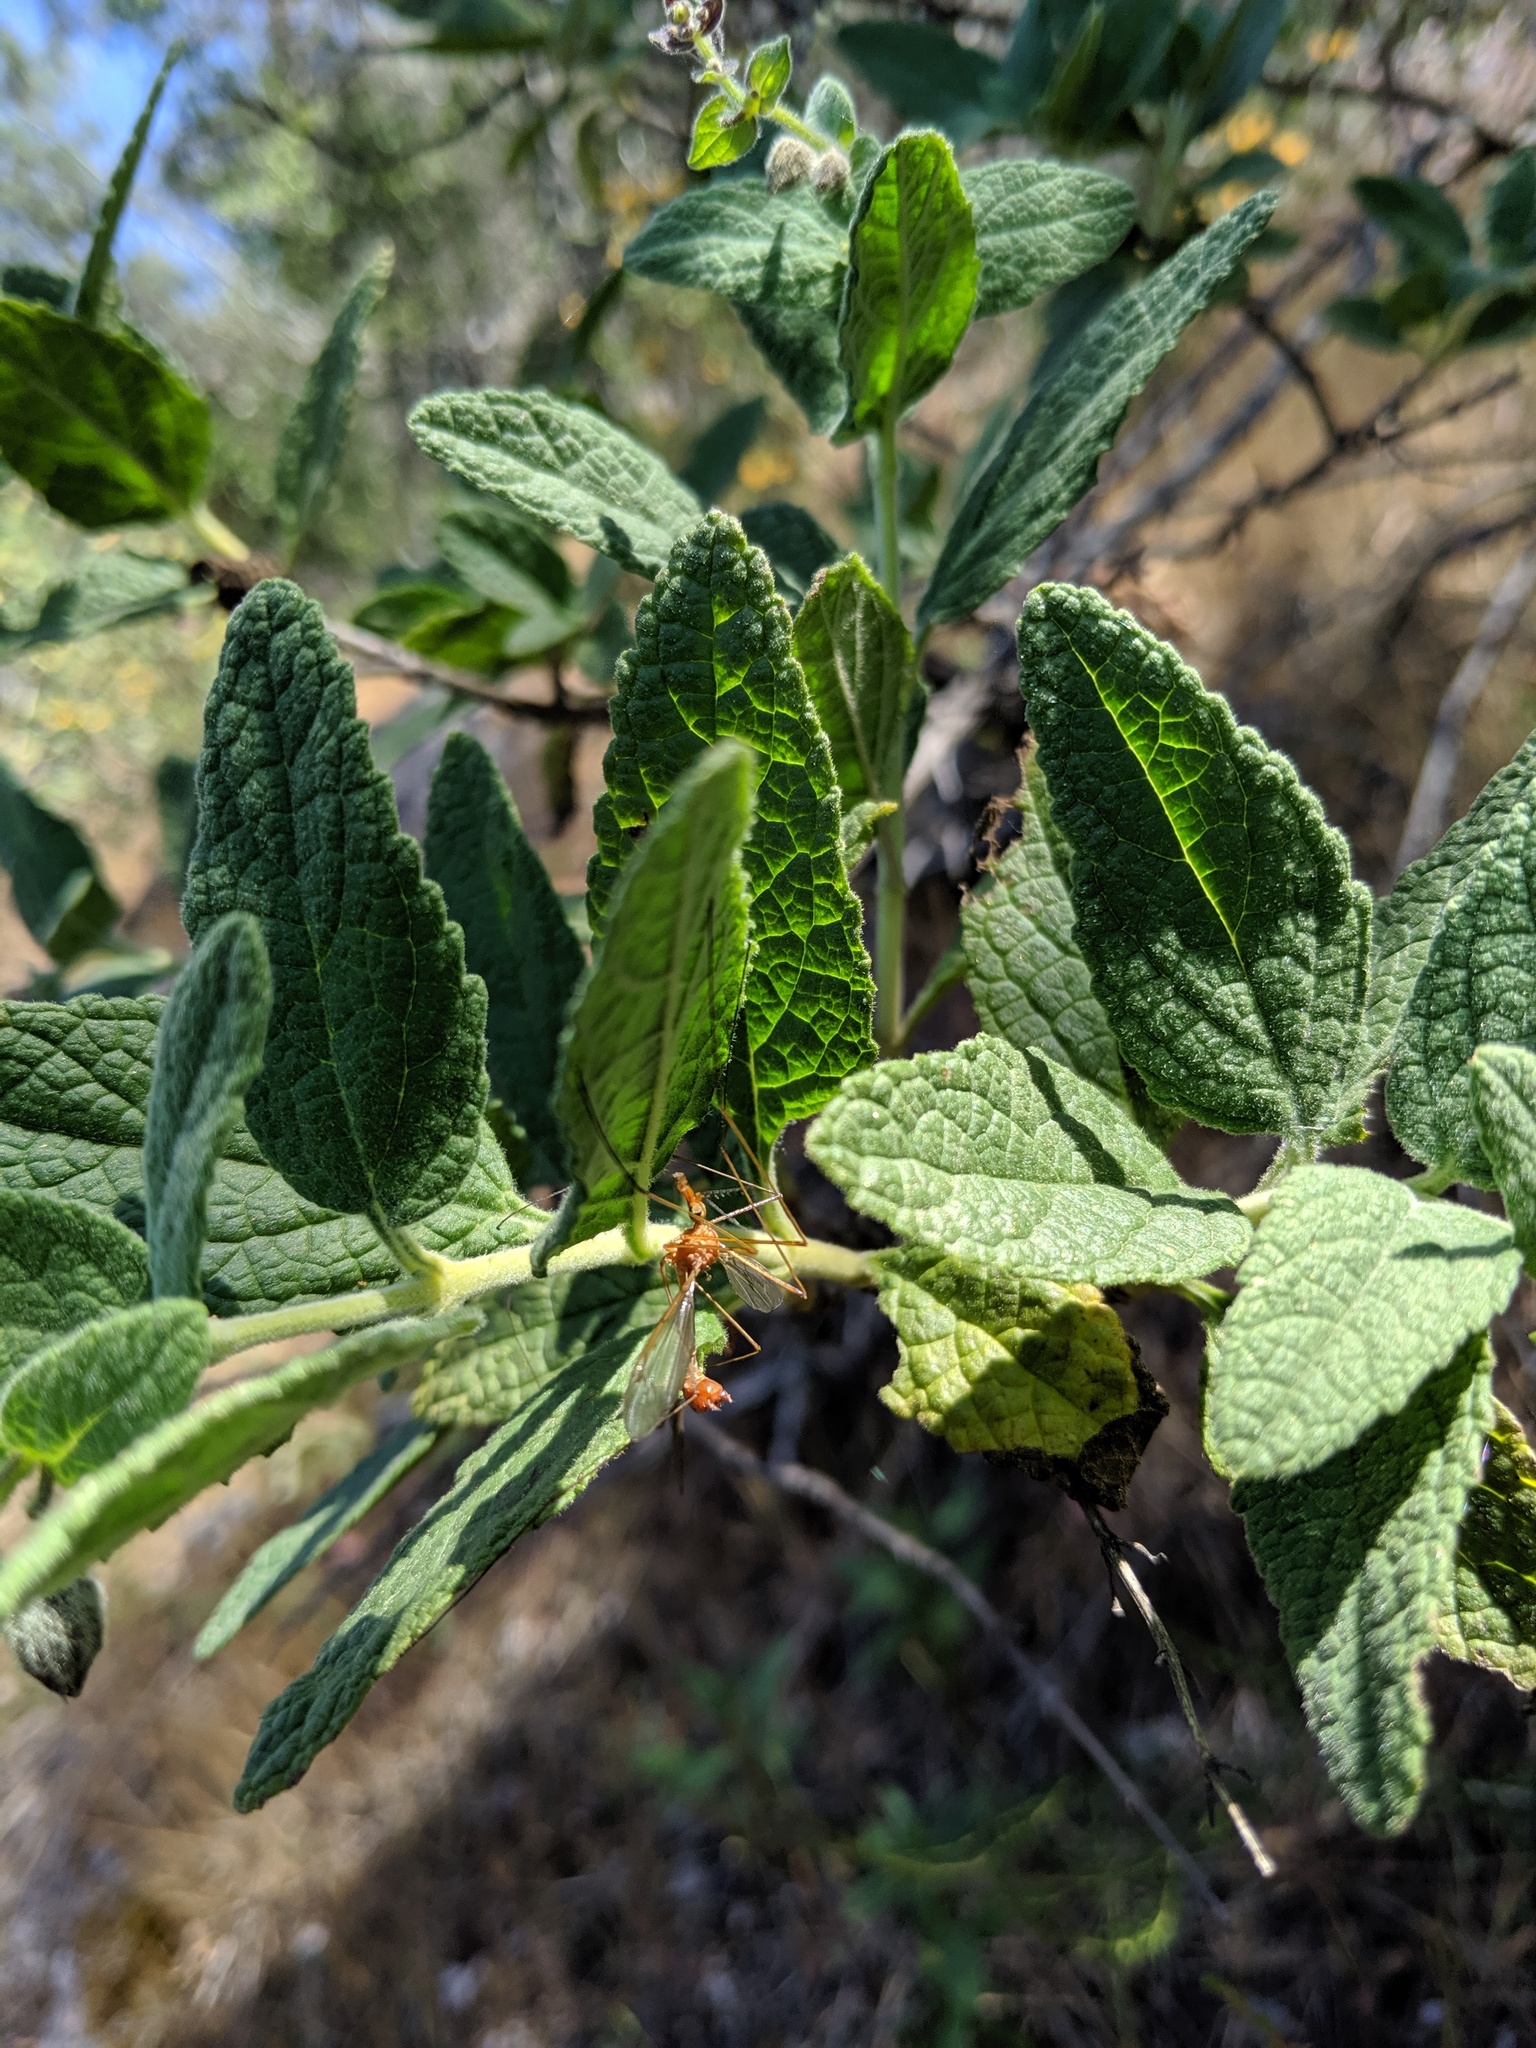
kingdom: Plantae
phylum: Tracheophyta
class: Magnoliopsida
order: Lamiales
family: Lamiaceae
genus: Lepechinia
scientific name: Lepechinia calycina
